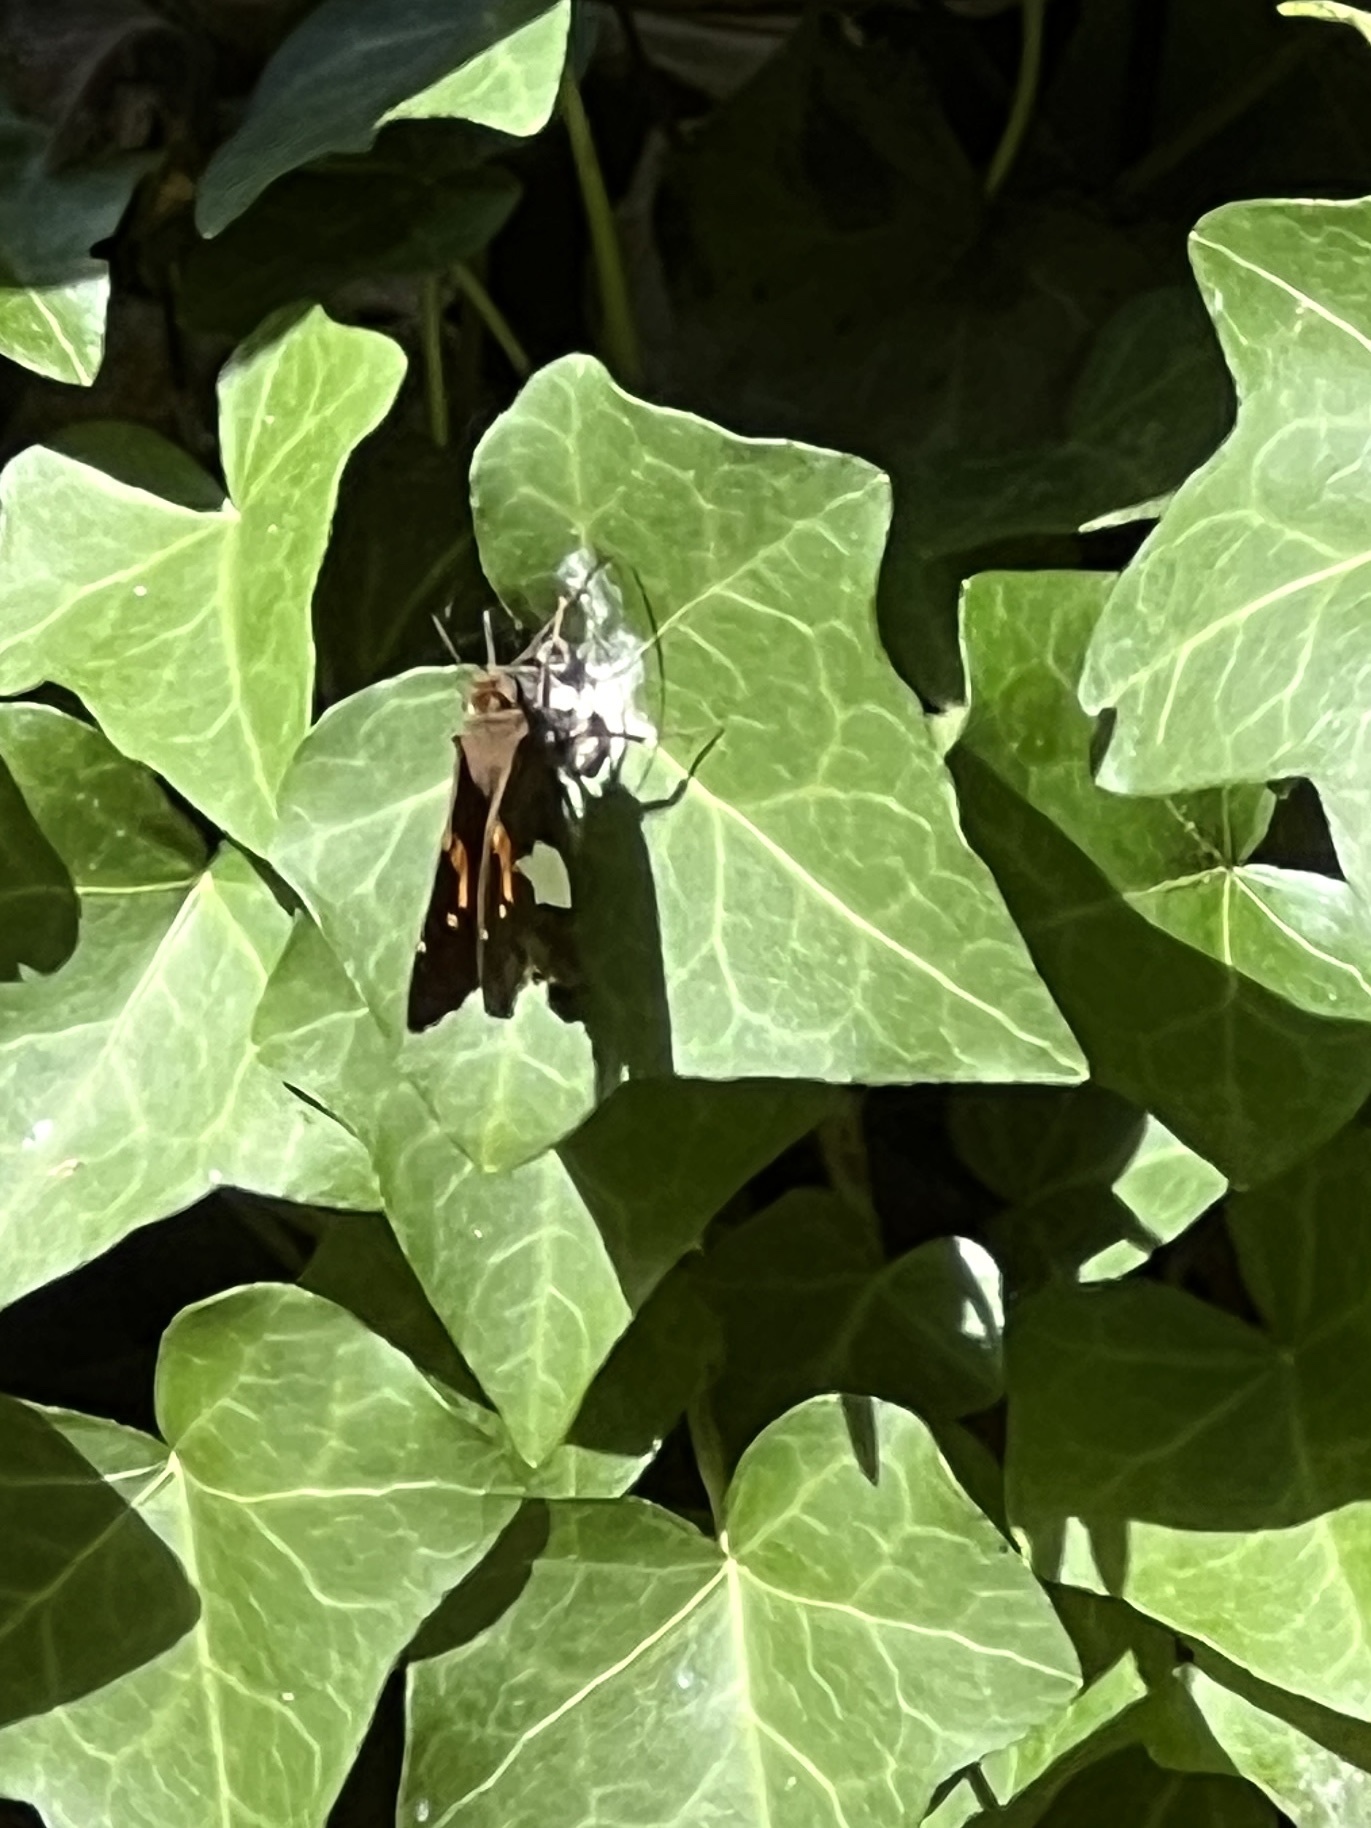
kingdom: Animalia
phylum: Arthropoda
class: Insecta
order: Lepidoptera
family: Hesperiidae
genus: Epargyreus
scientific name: Epargyreus clarus
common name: Silver-spotted skipper
